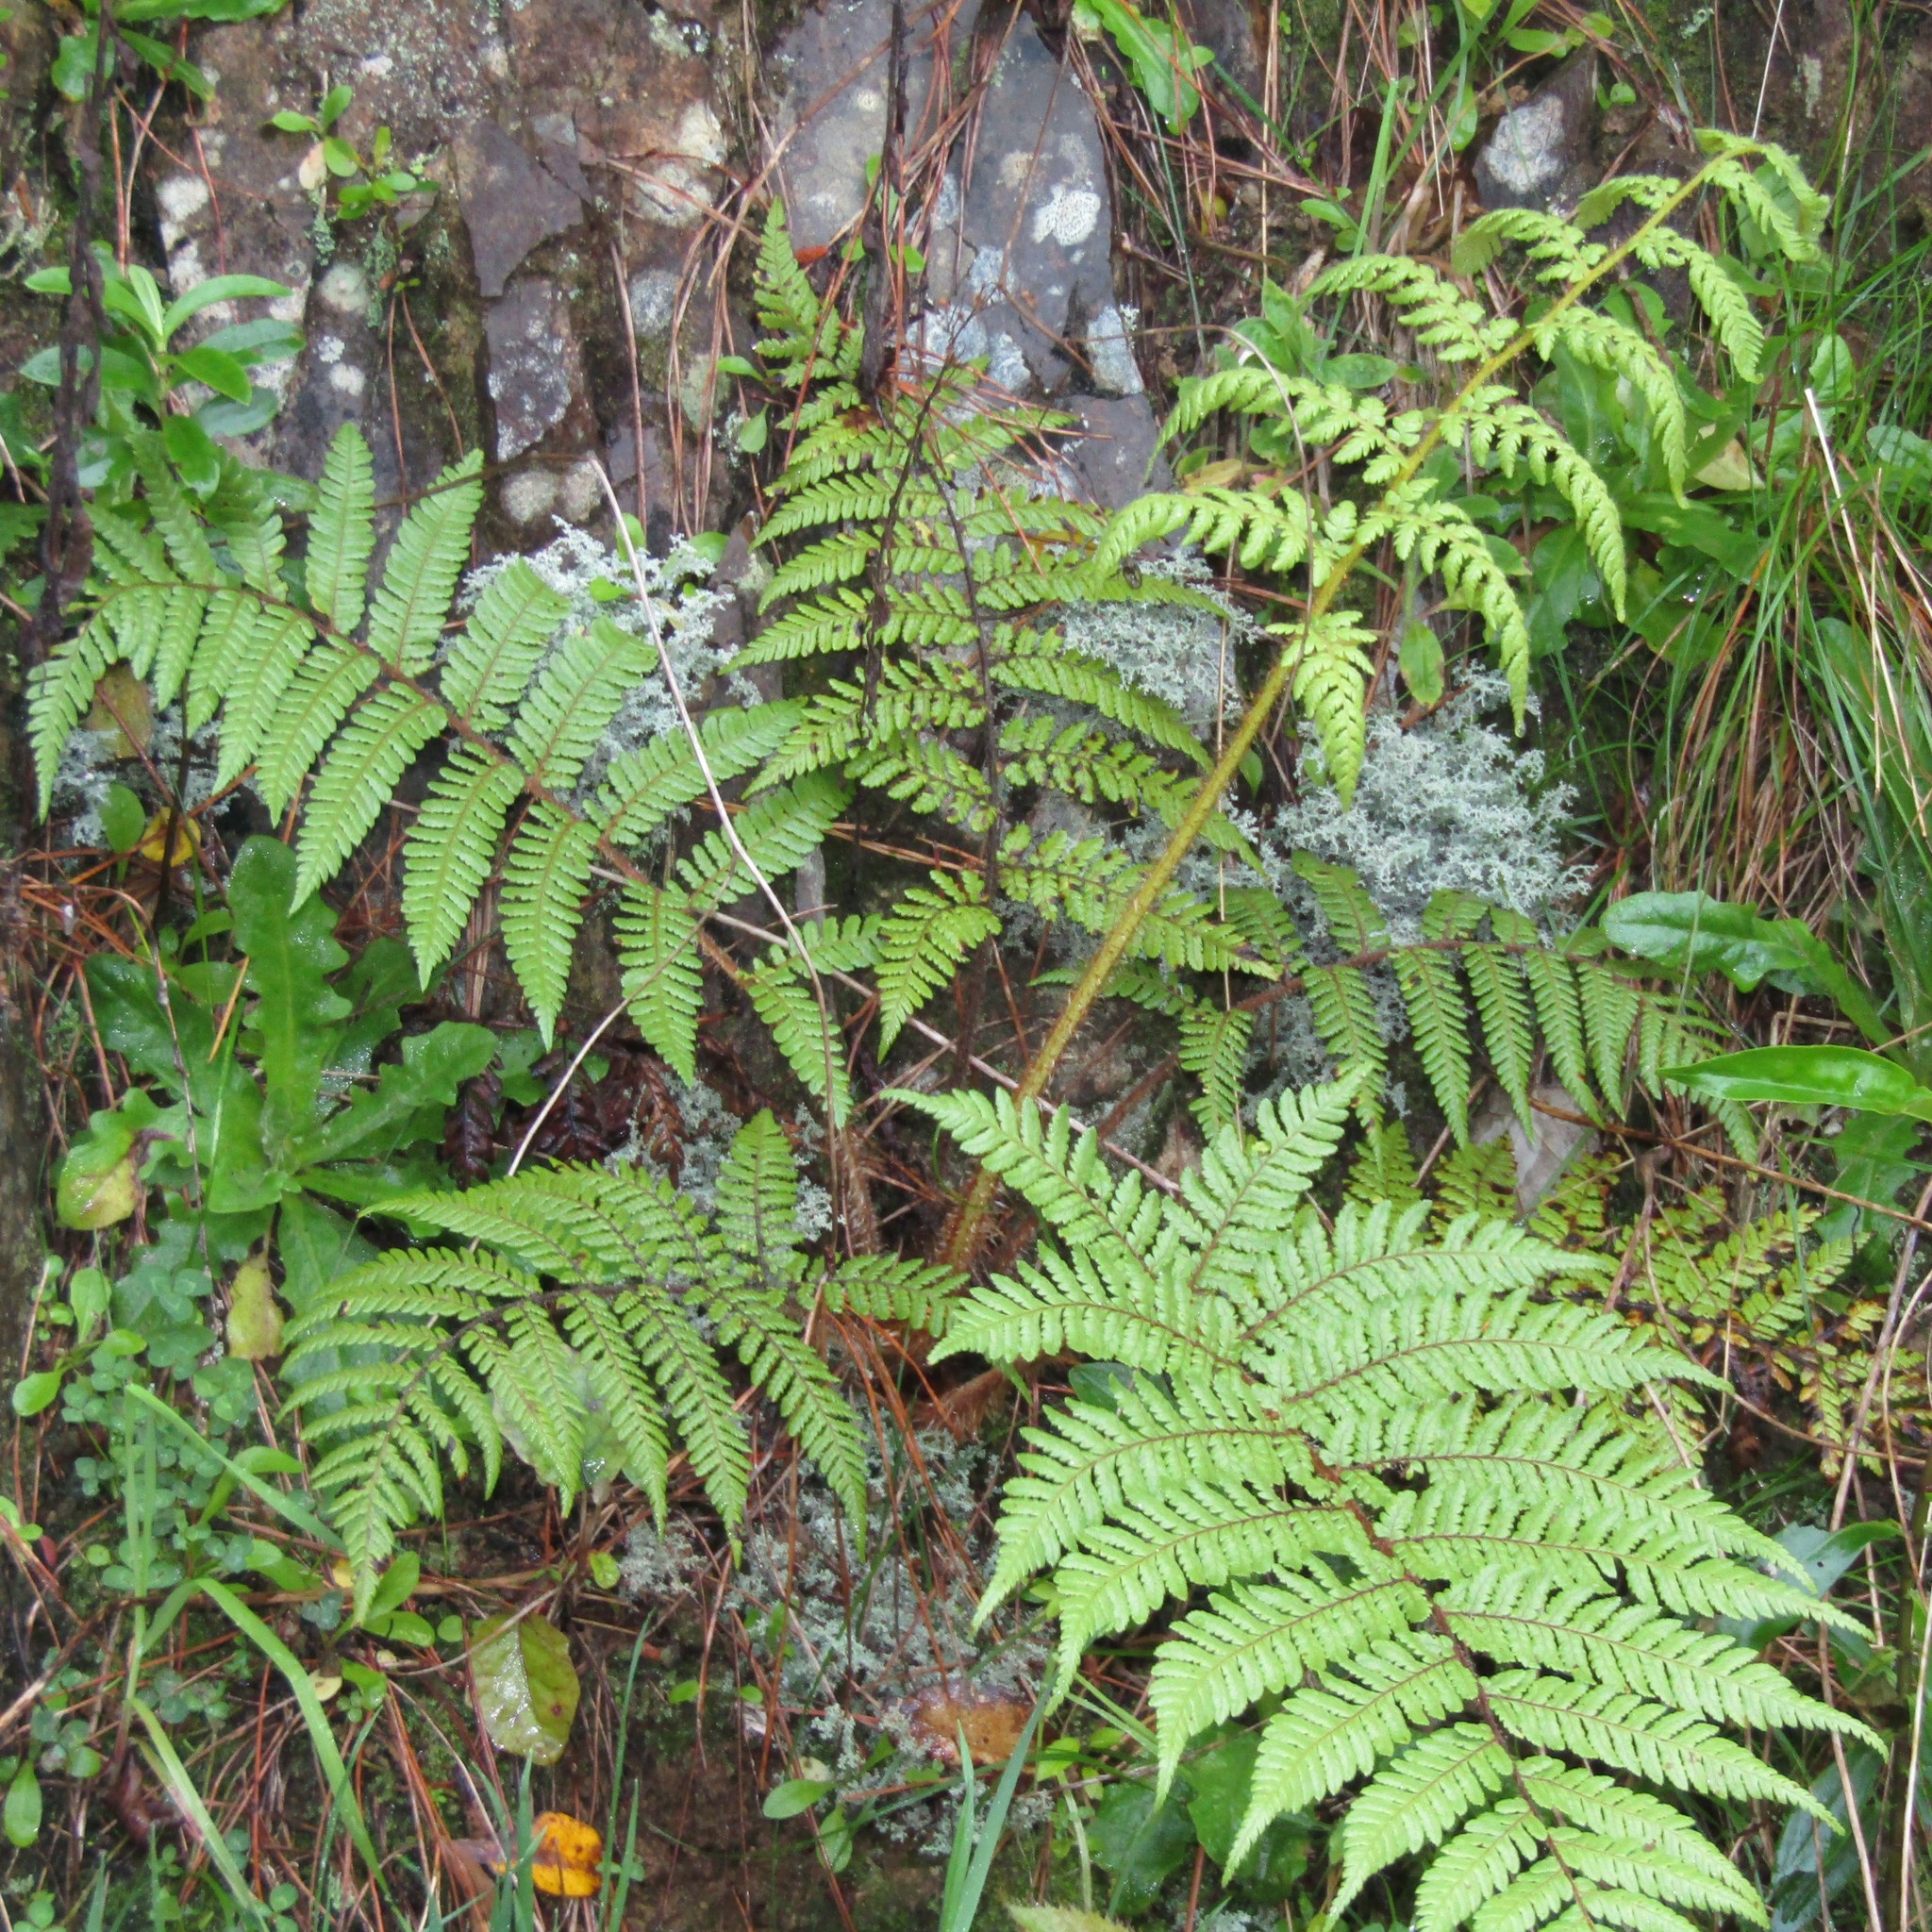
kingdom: Plantae
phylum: Tracheophyta
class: Polypodiopsida
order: Cyatheales
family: Cyatheaceae
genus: Sphaeropteris
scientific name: Sphaeropteris medullaris
